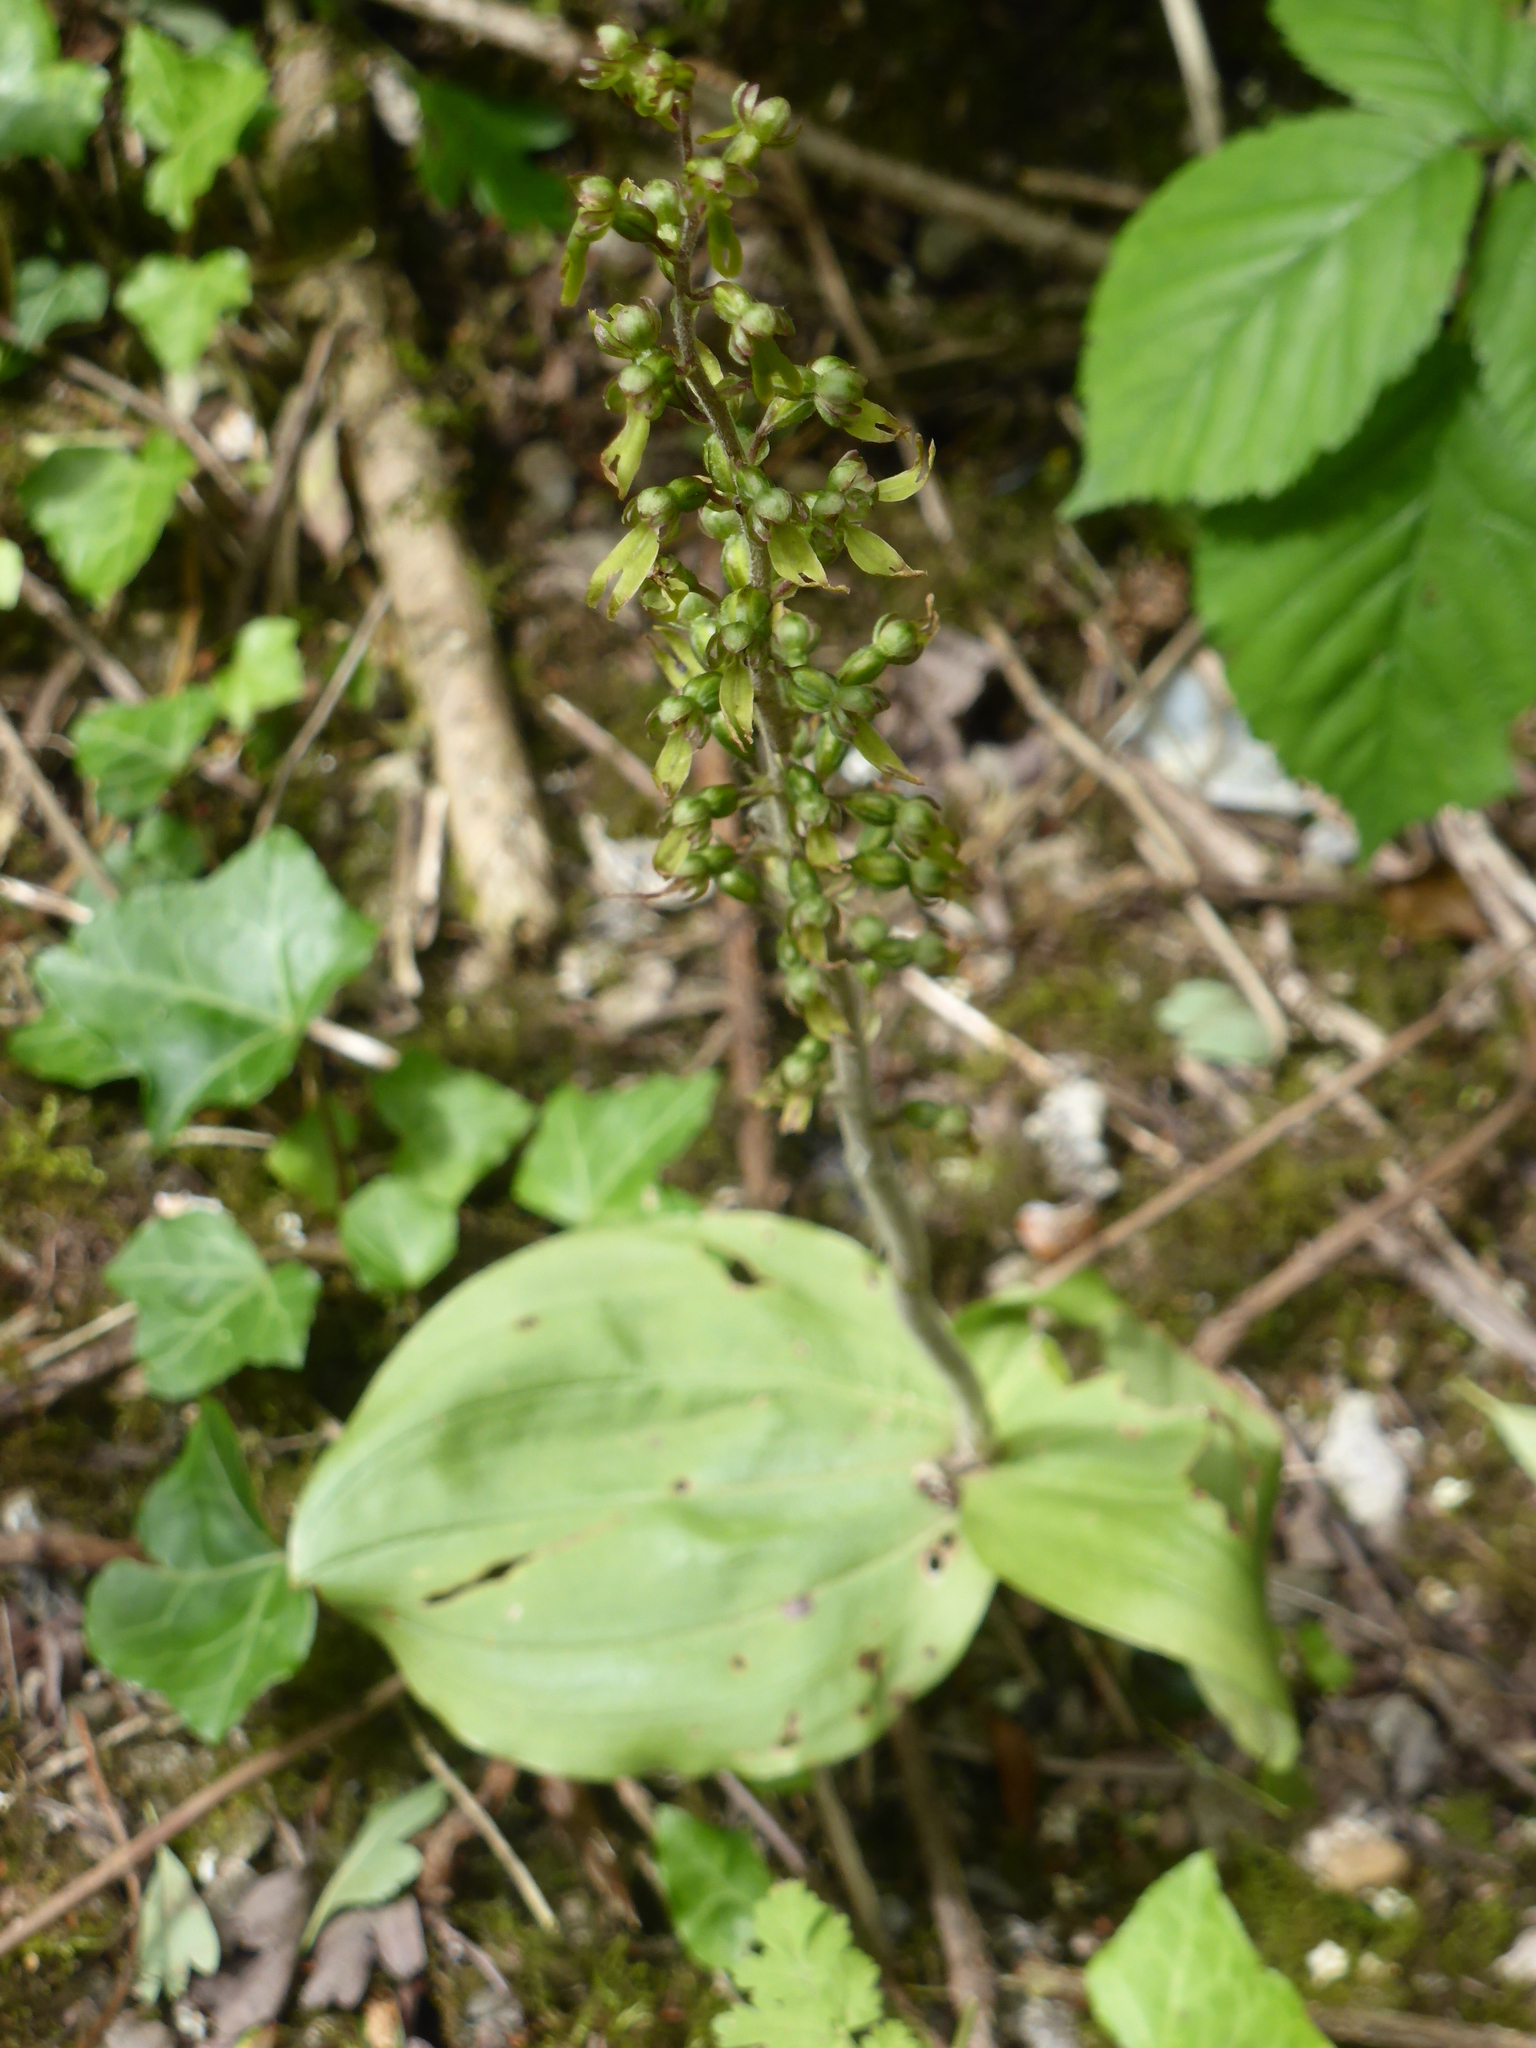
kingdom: Plantae
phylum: Tracheophyta
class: Liliopsida
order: Asparagales
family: Orchidaceae
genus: Neottia
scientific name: Neottia ovata
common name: Common twayblade
